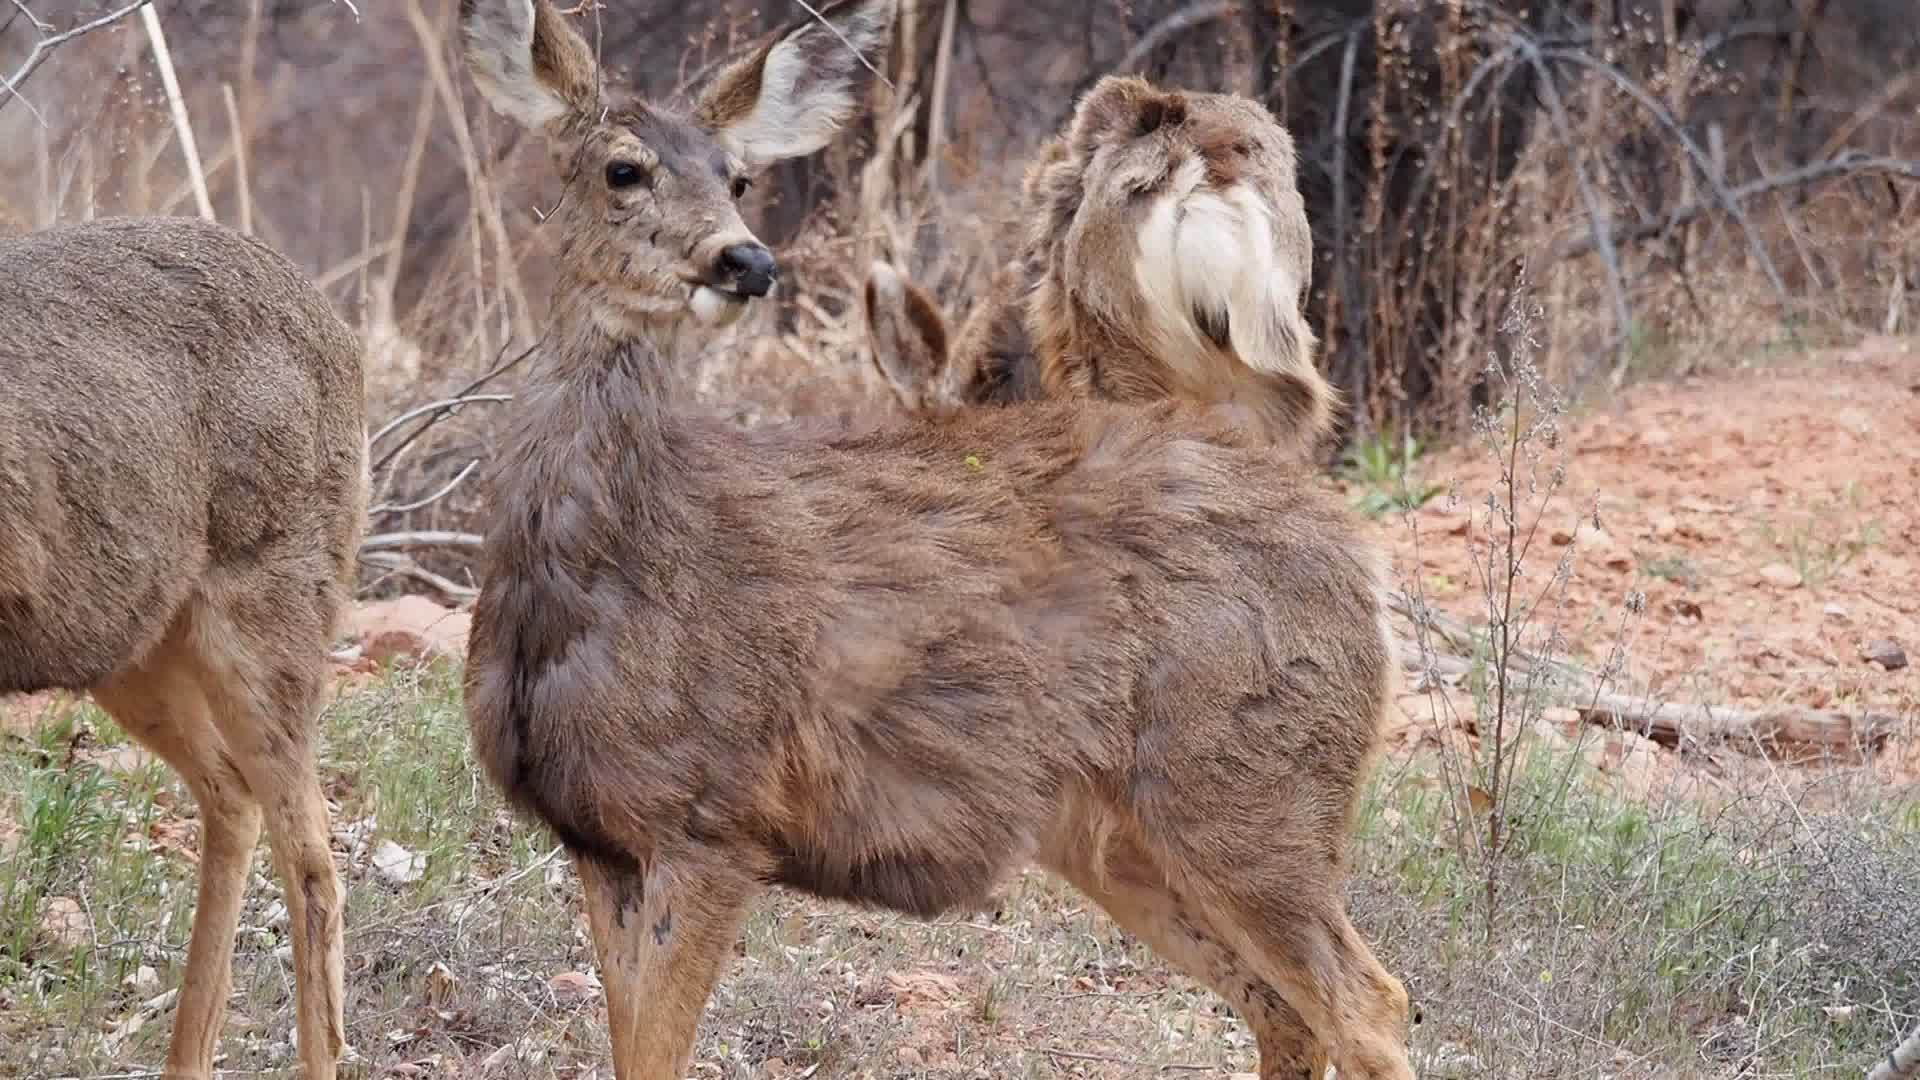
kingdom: Animalia
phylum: Chordata
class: Mammalia
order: Artiodactyla
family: Cervidae
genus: Odocoileus
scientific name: Odocoileus hemionus
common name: Mule deer
